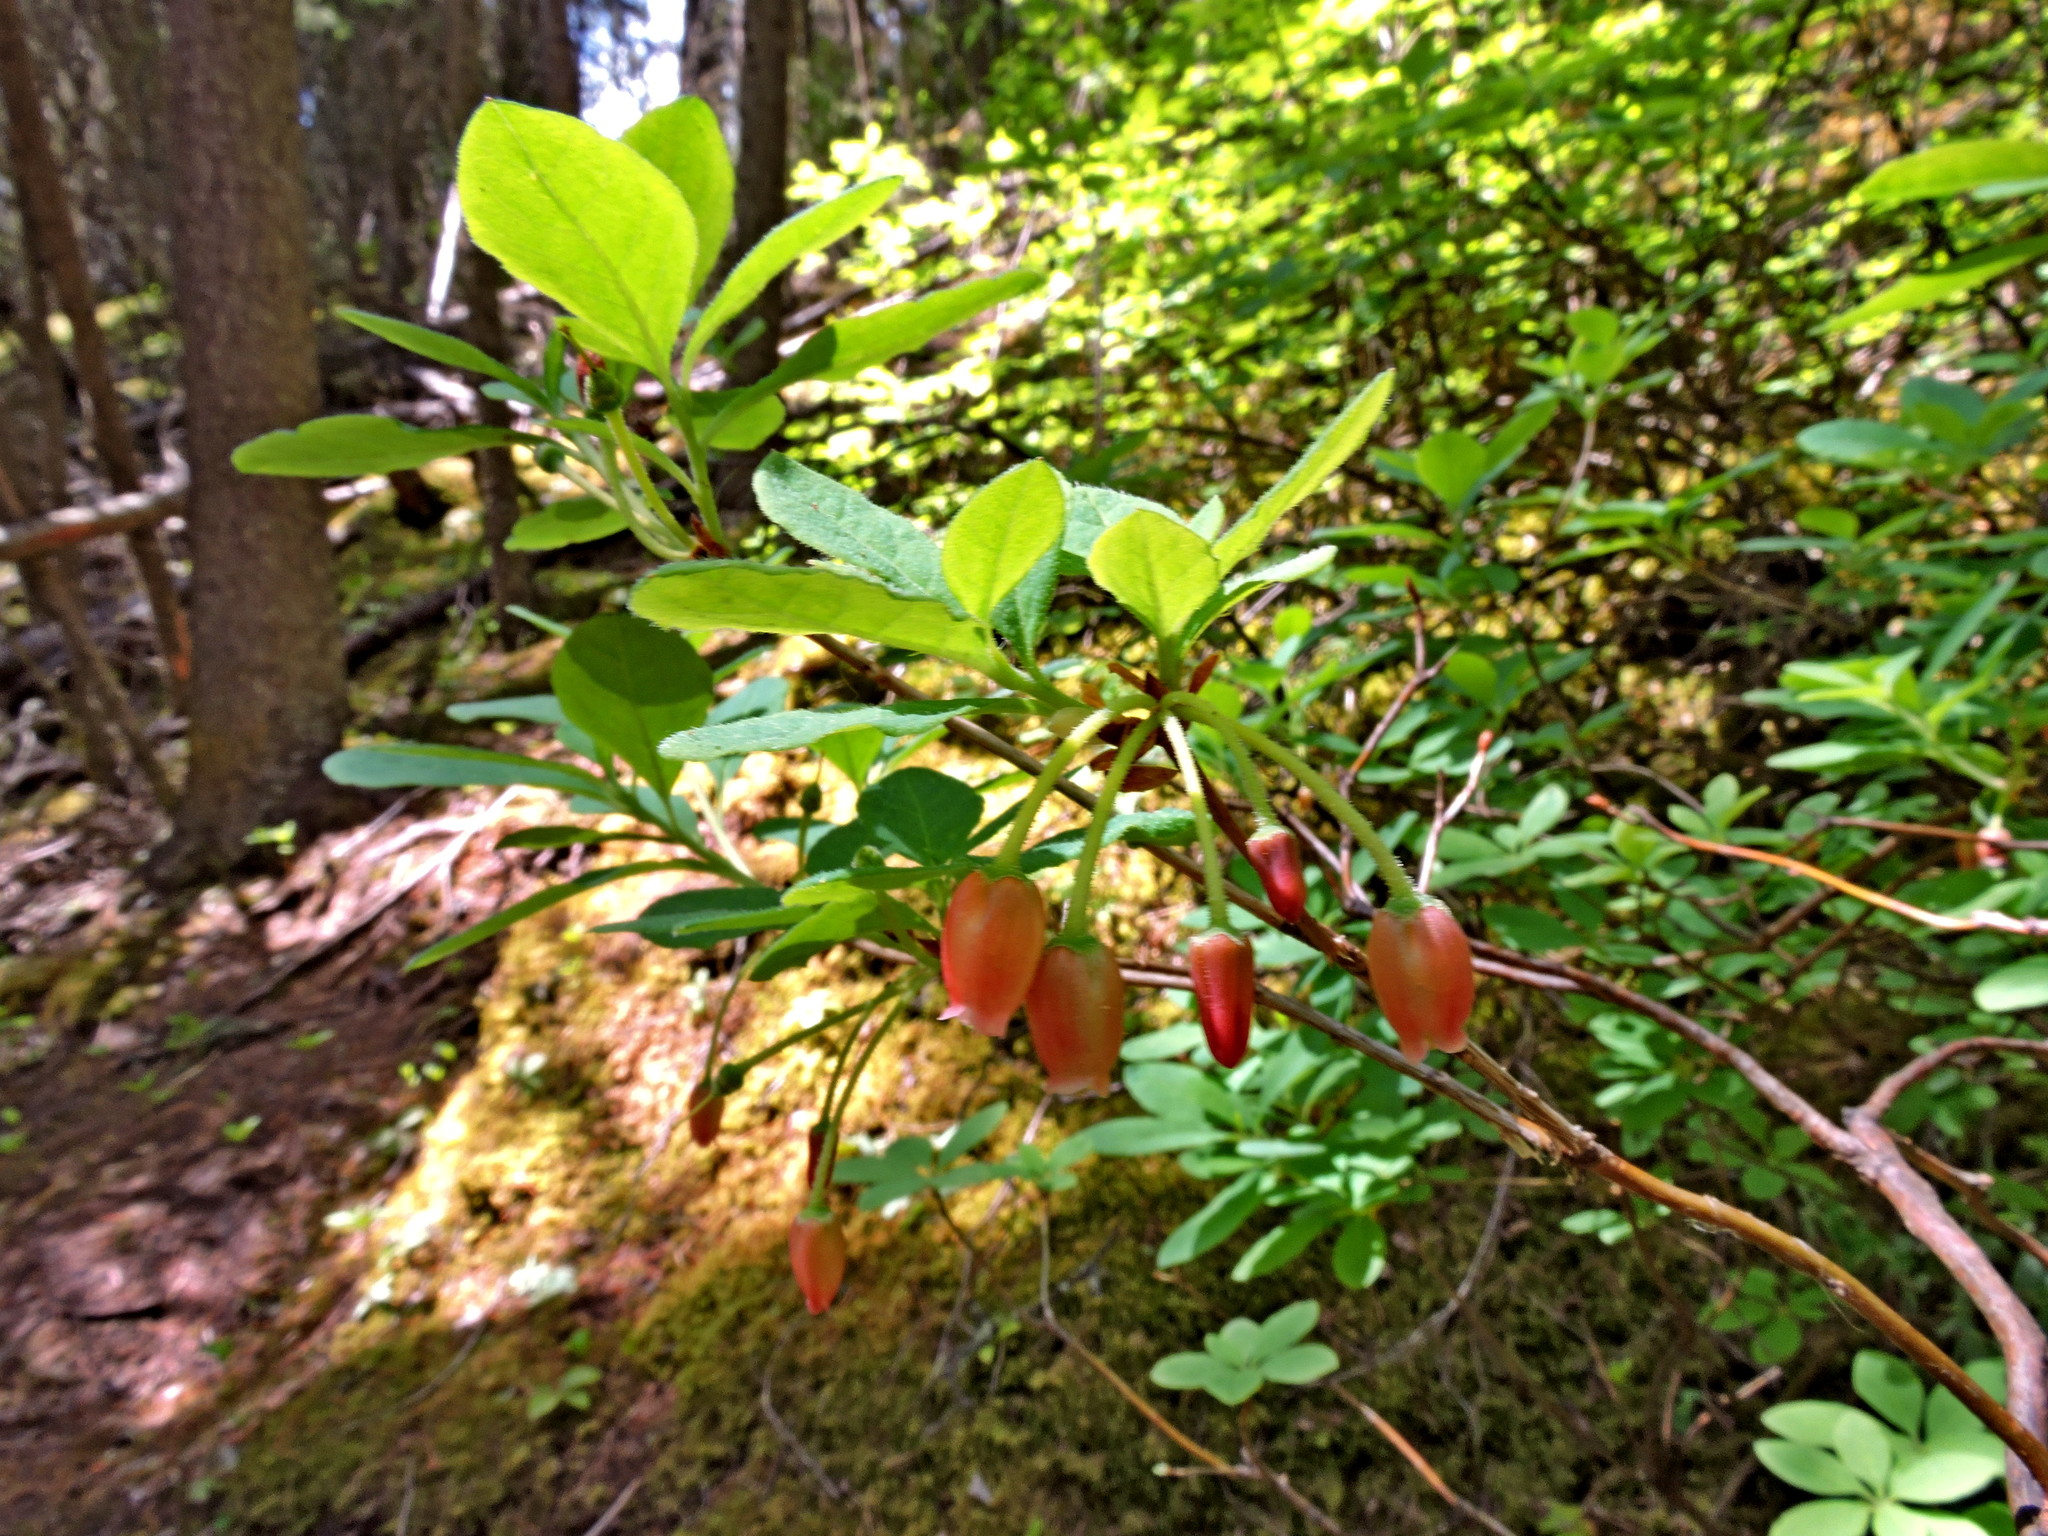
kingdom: Plantae
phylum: Tracheophyta
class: Magnoliopsida
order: Ericales
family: Ericaceae
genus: Rhododendron
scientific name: Rhododendron menziesii
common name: Pacific menziesia
